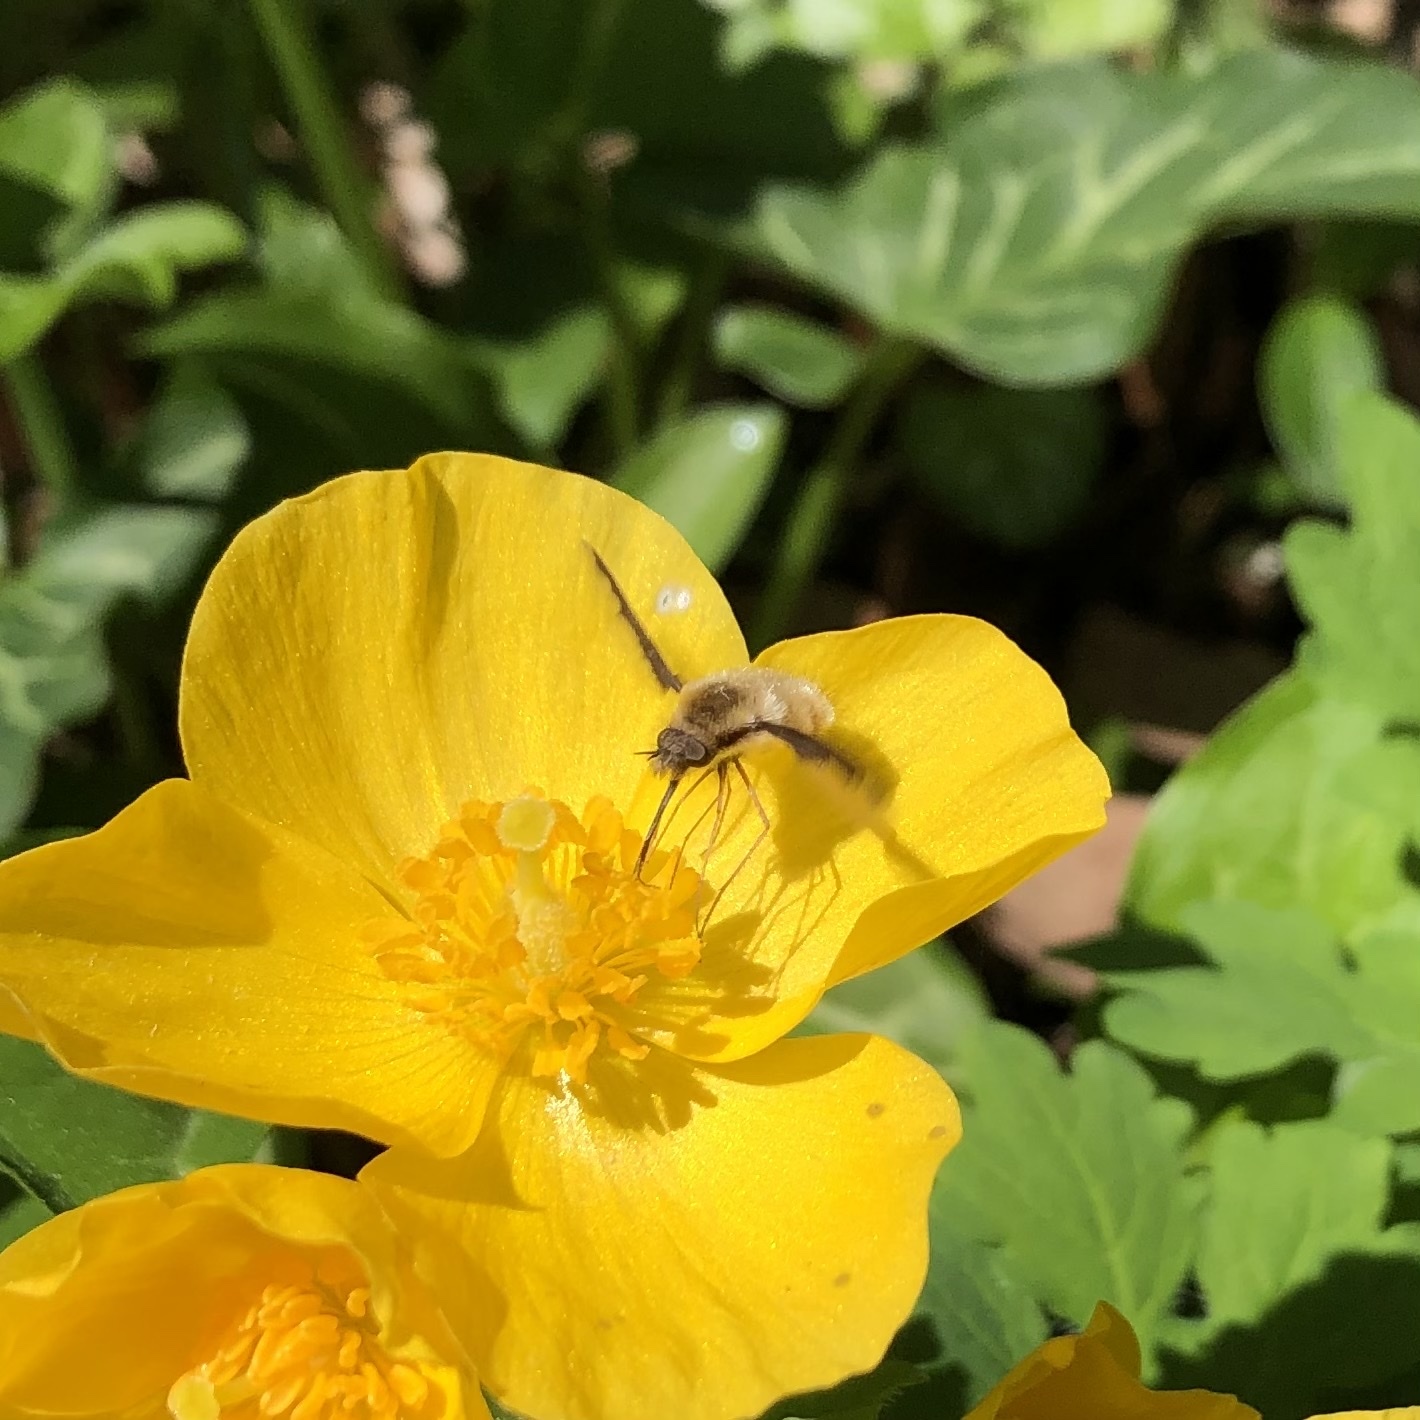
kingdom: Animalia
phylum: Arthropoda
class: Insecta
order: Diptera
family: Bombyliidae
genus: Bombylius
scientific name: Bombylius major
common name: Bee fly
